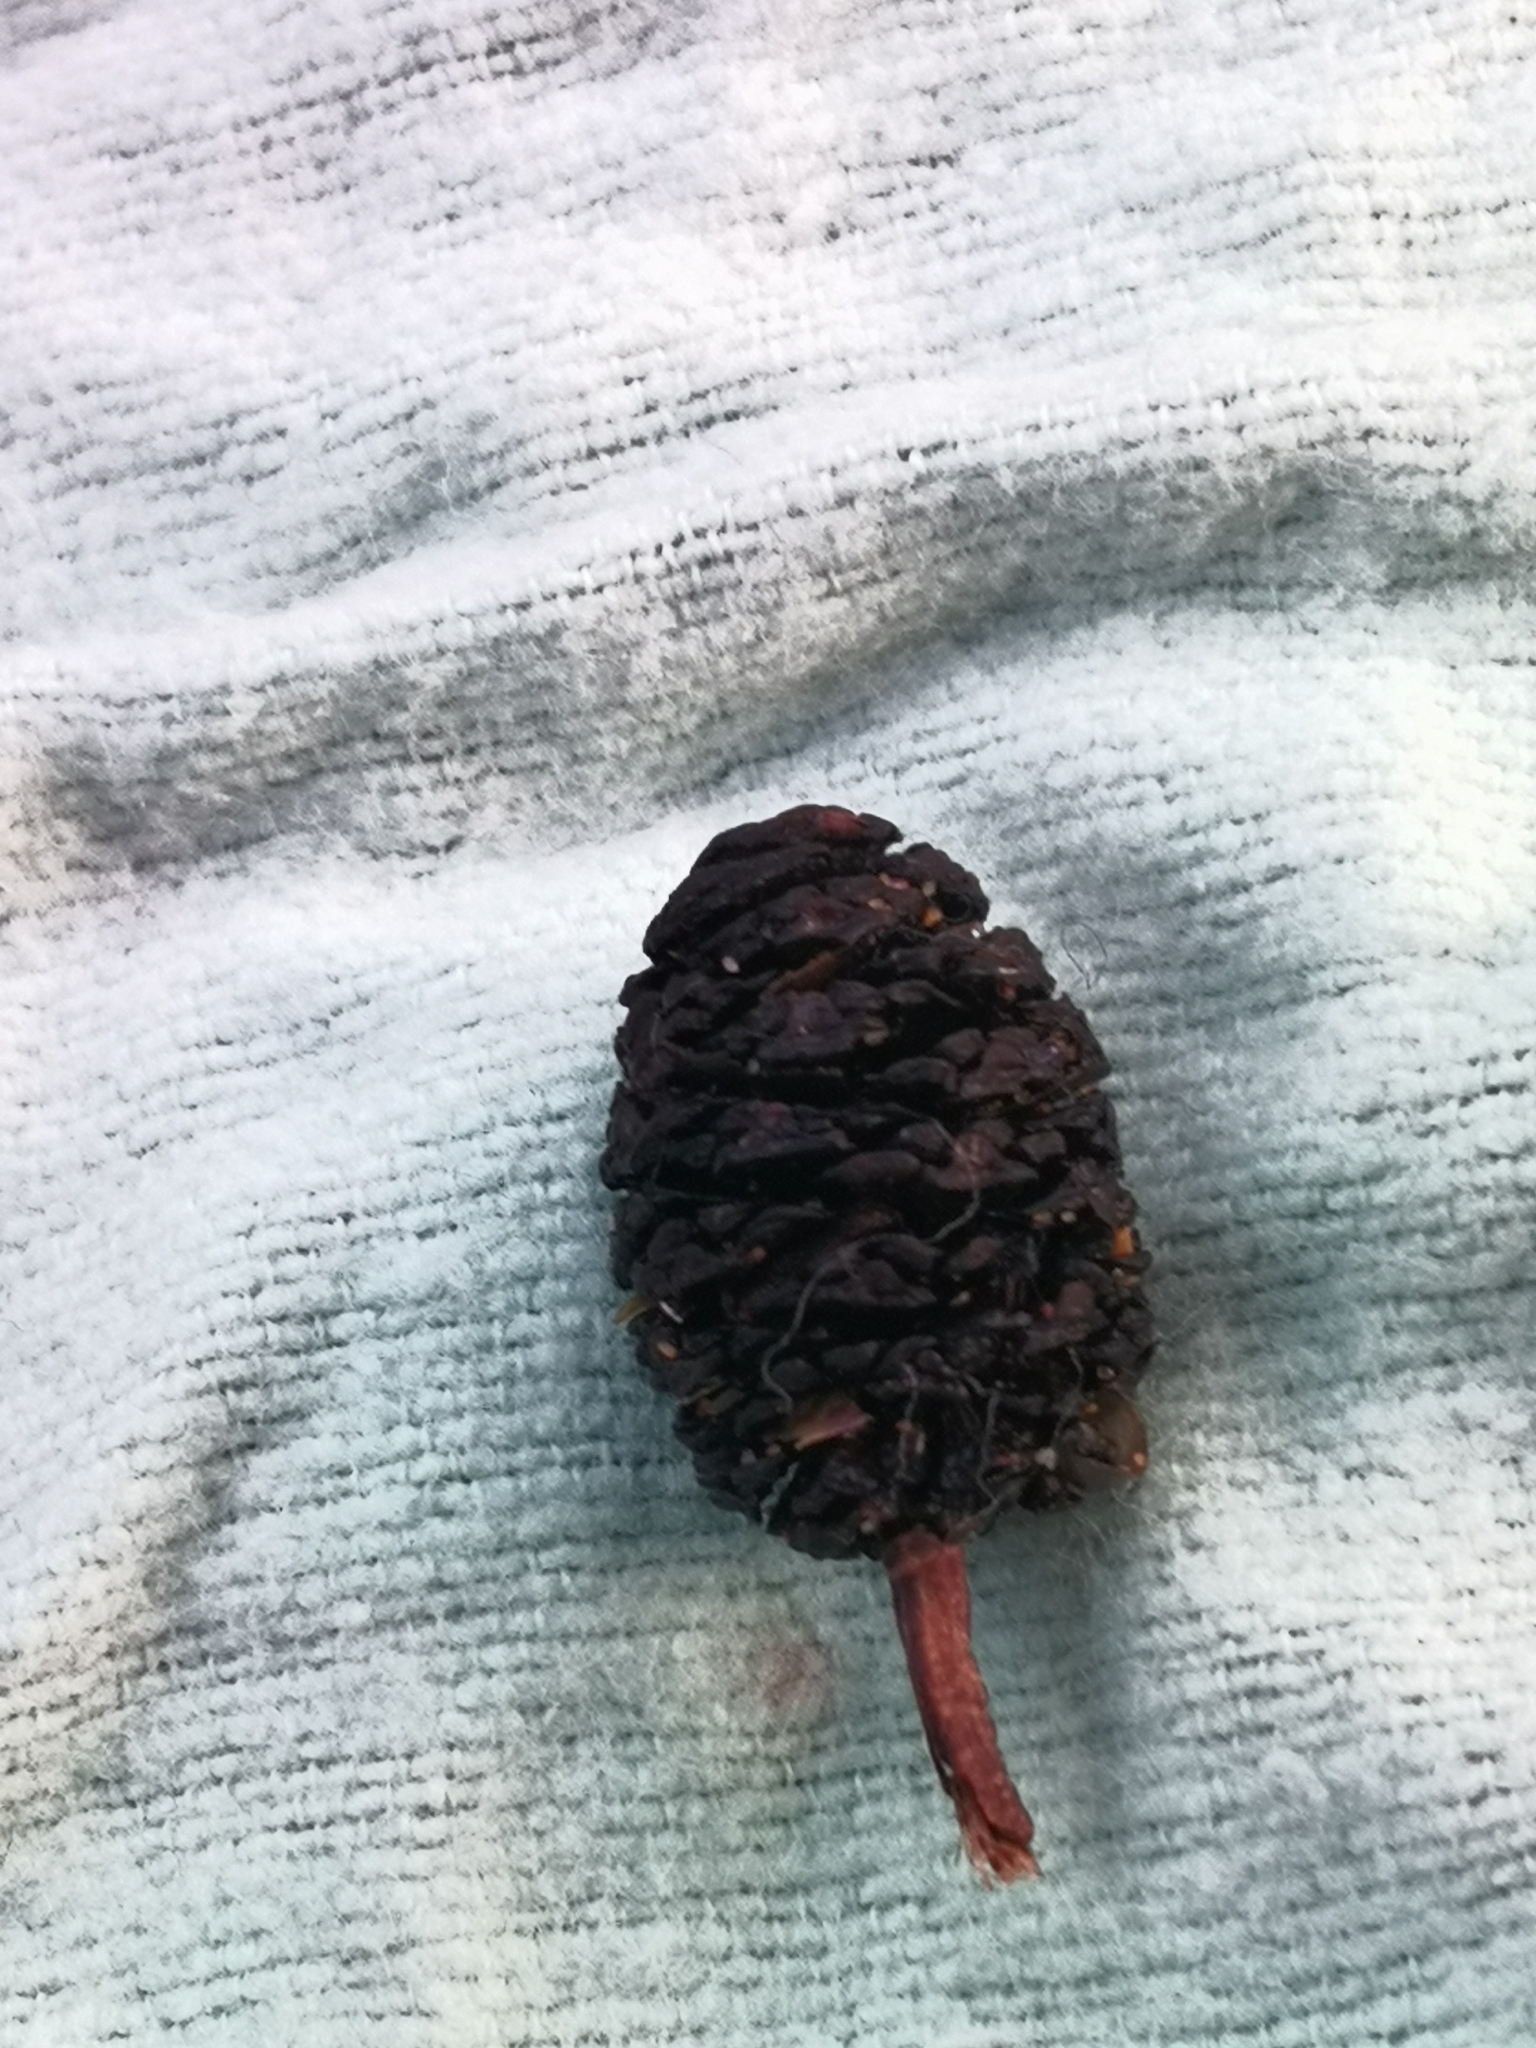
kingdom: Plantae
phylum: Tracheophyta
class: Magnoliopsida
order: Fagales
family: Betulaceae
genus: Alnus
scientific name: Alnus glutinosa
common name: Black alder
